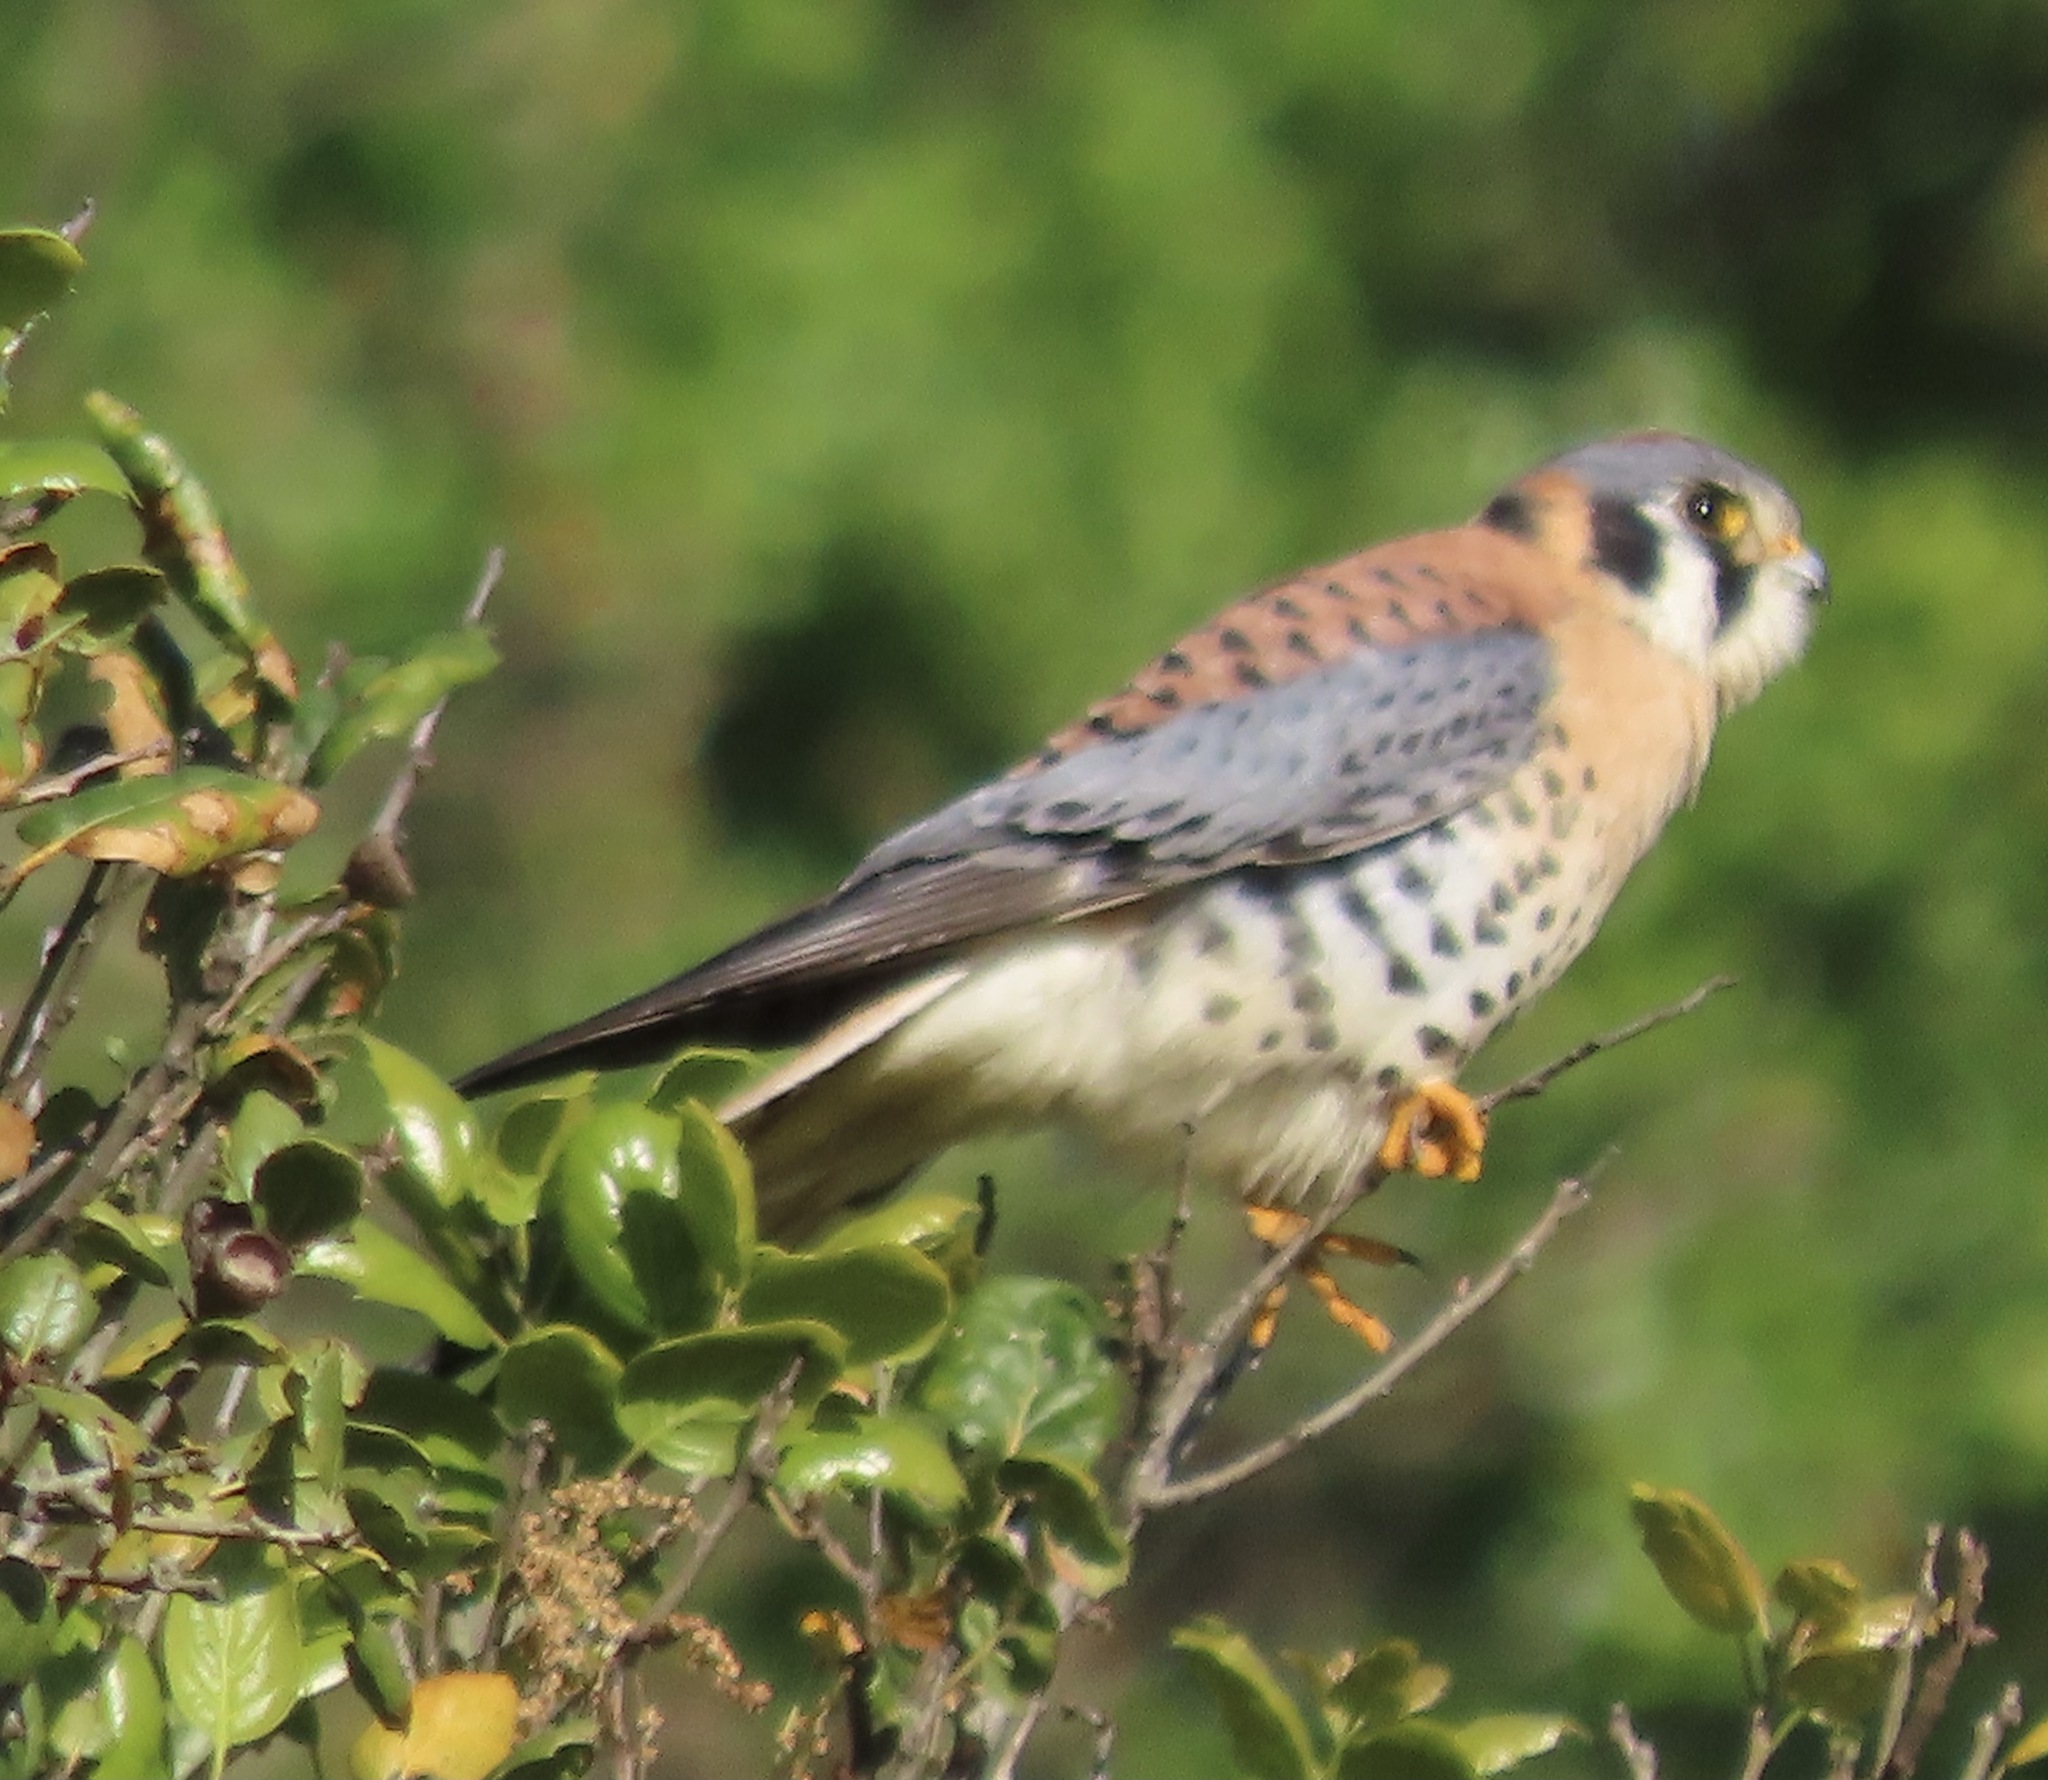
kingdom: Animalia
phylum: Chordata
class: Aves
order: Falconiformes
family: Falconidae
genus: Falco
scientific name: Falco sparverius
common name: American kestrel
